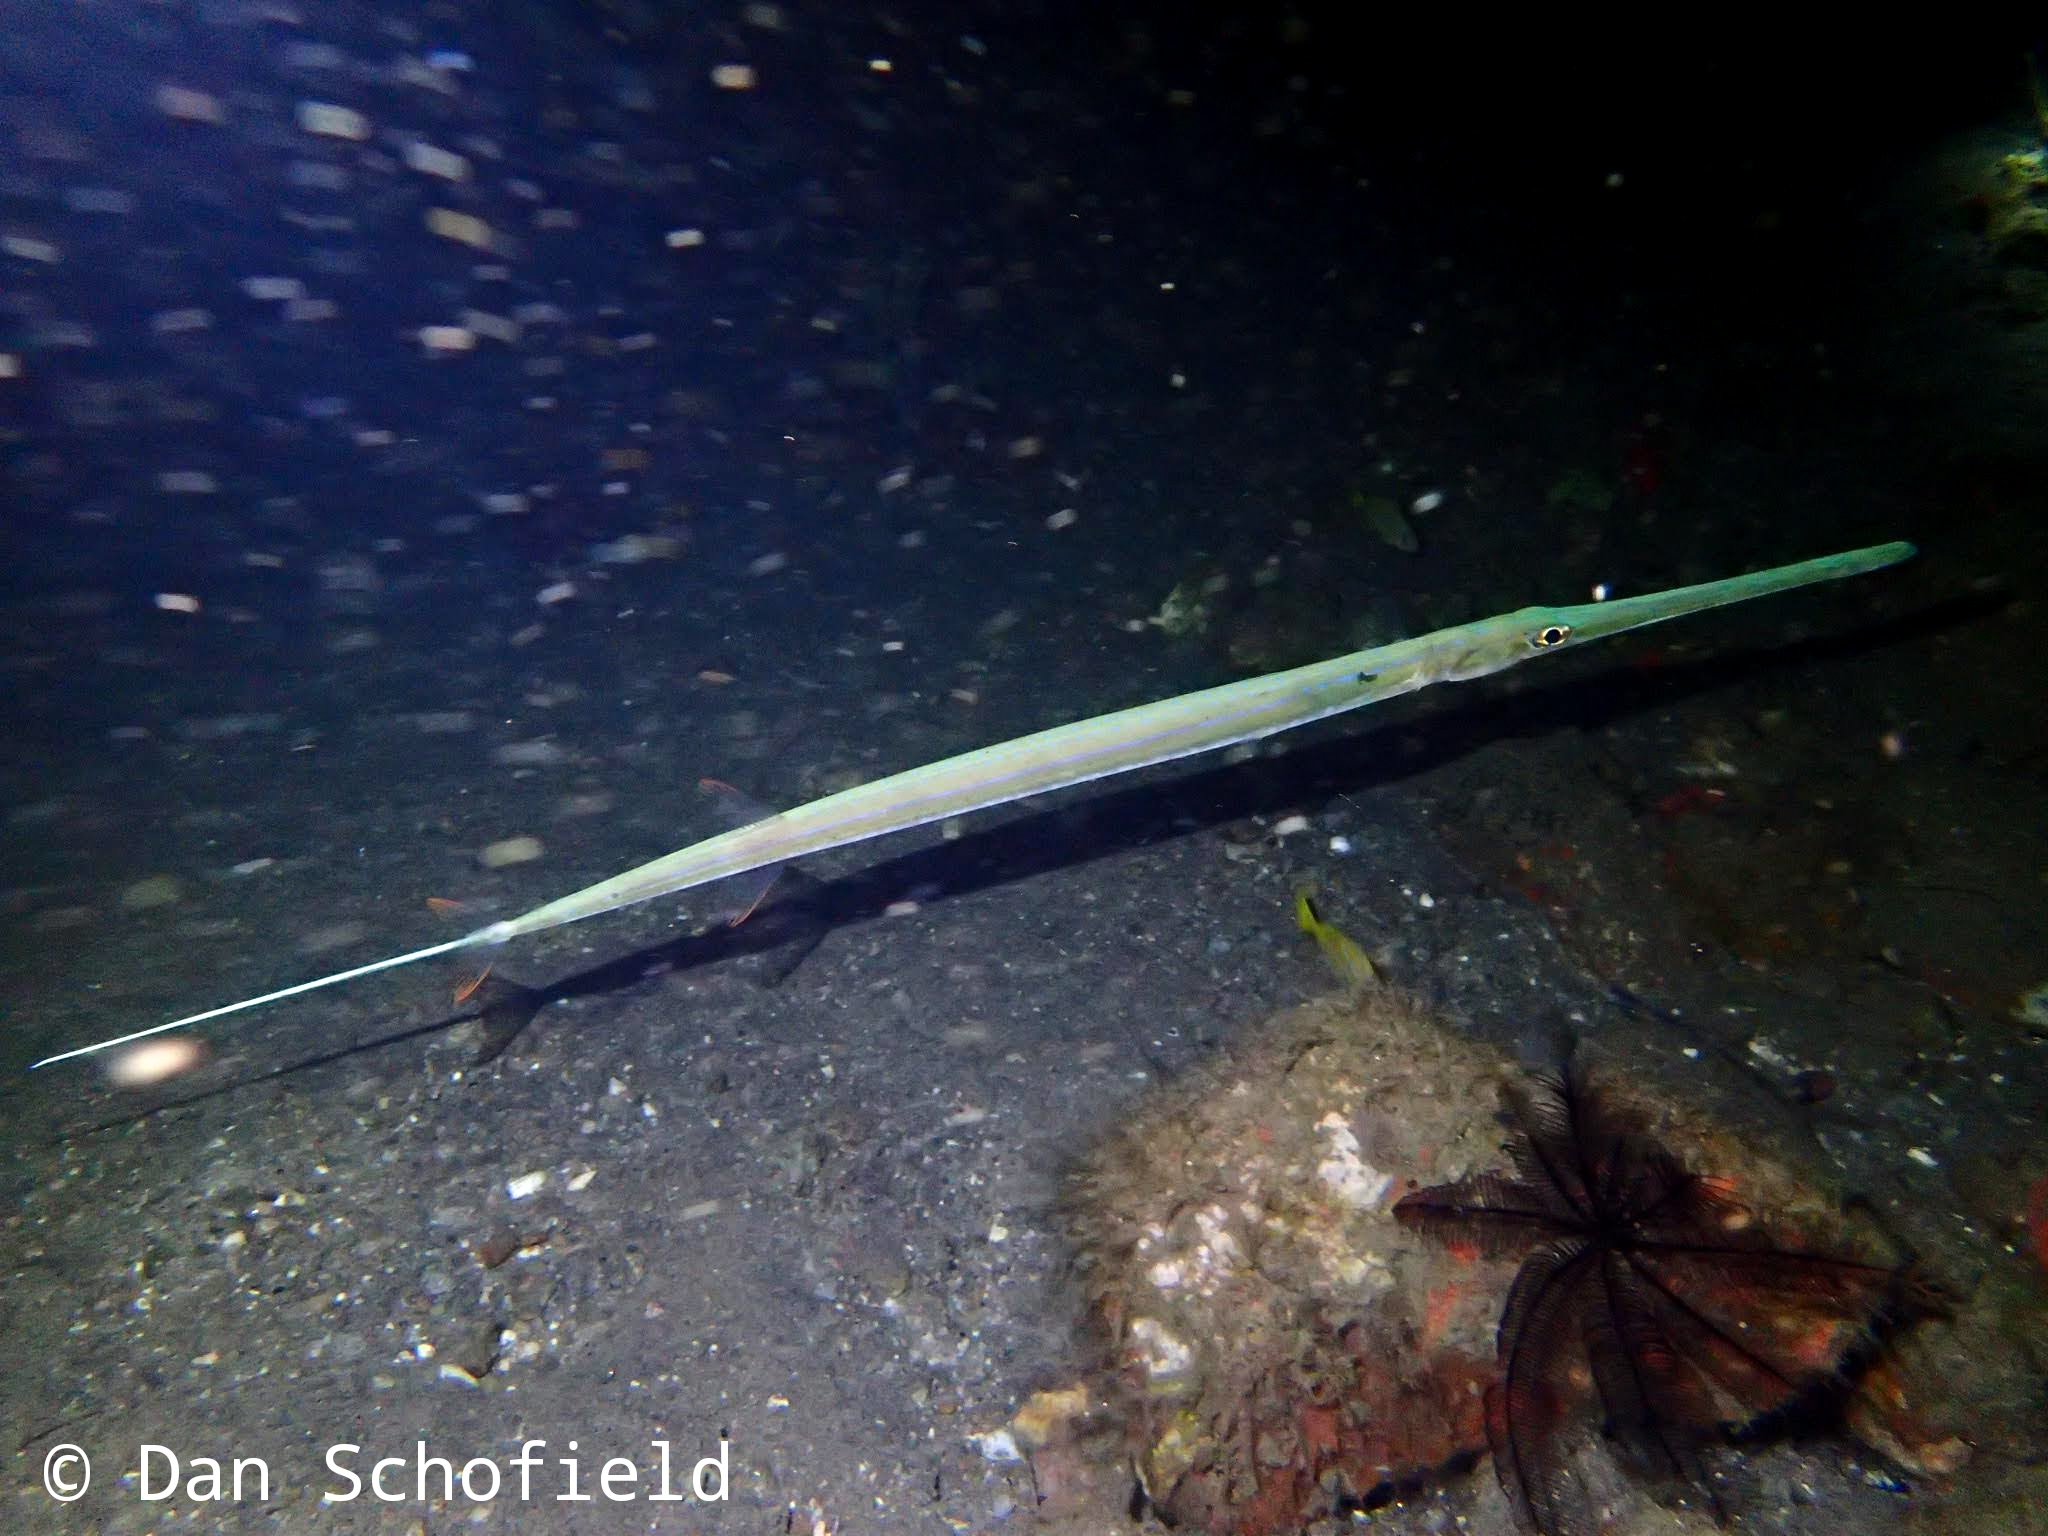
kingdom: Animalia
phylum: Chordata
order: Syngnathiformes
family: Fistulariidae
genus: Fistularia
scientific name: Fistularia commersonii
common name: Bluespotted cornetfish
